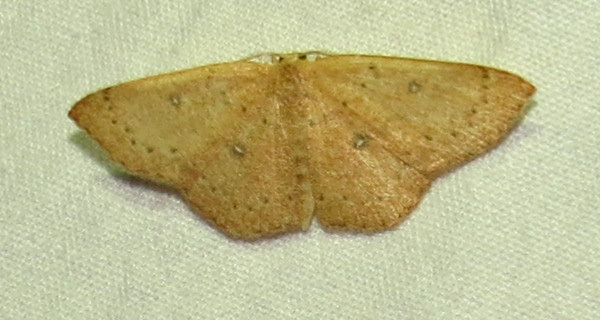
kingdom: Animalia
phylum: Arthropoda
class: Insecta
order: Lepidoptera
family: Geometridae
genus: Cyclophora
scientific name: Cyclophora packardi
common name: Packard's wave
